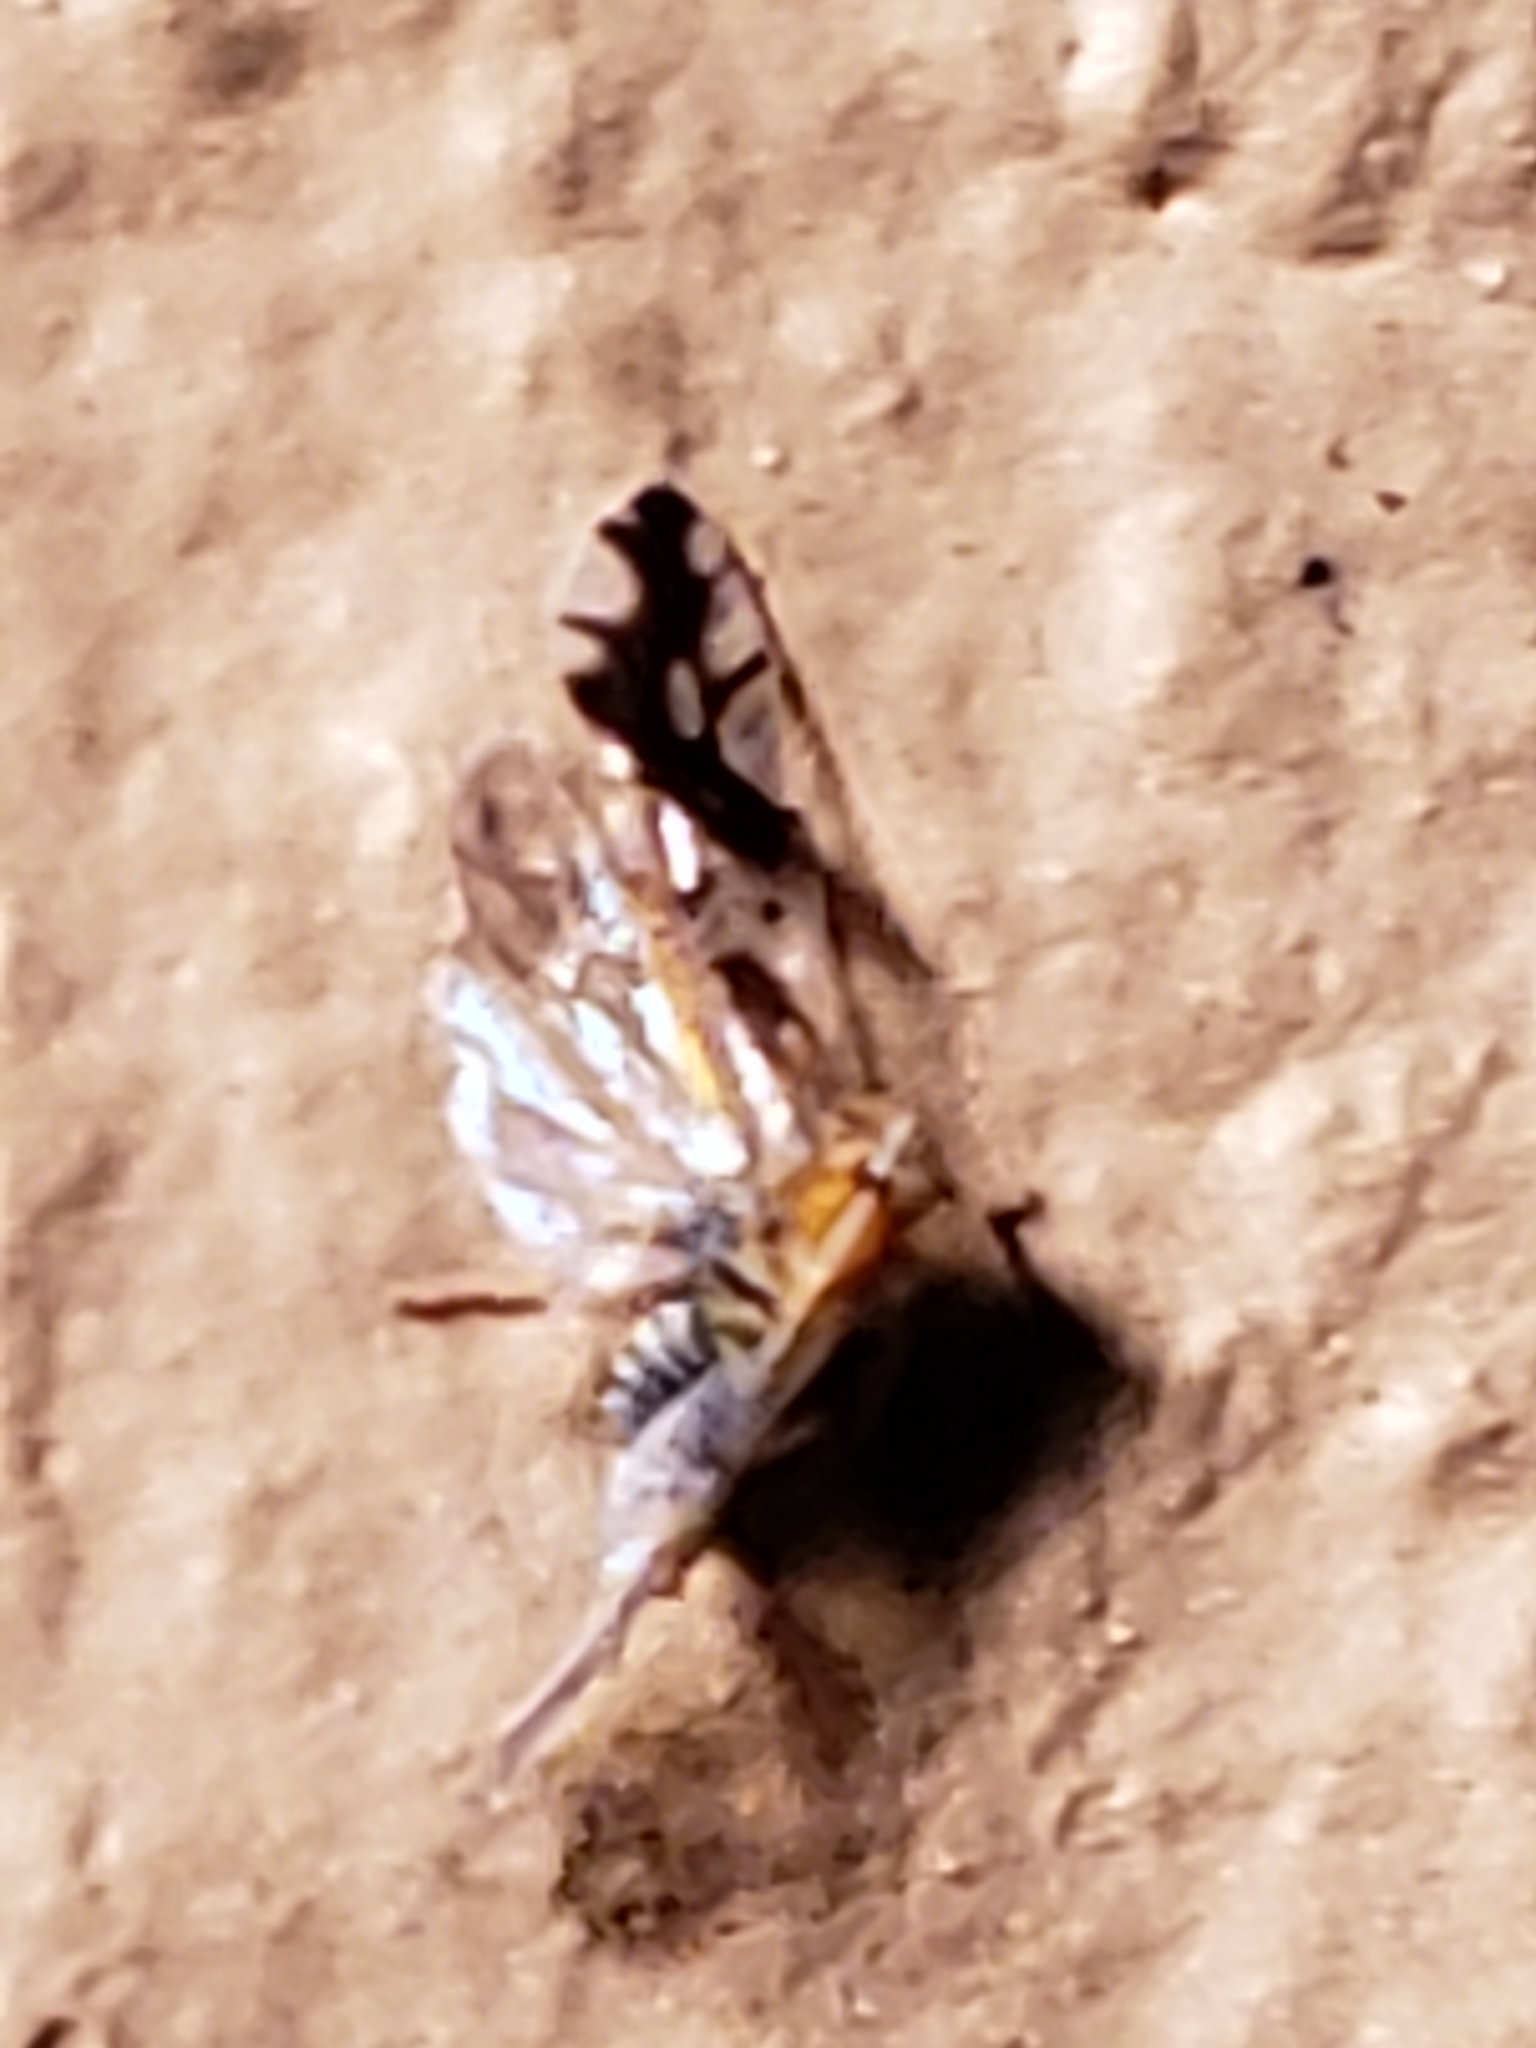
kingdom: Animalia
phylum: Arthropoda
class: Insecta
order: Hemiptera
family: Delphacidae
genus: Liburniella
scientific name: Liburniella ornata
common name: Ornate planthopper
